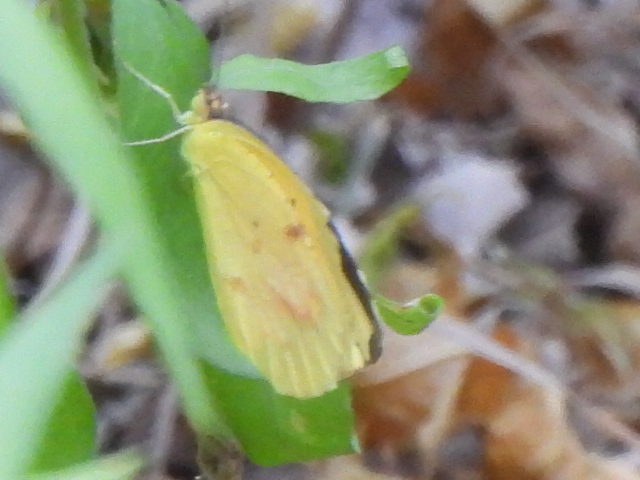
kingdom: Animalia
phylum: Arthropoda
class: Insecta
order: Lepidoptera
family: Pieridae
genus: Abaeis
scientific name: Abaeis nicippe
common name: Sleepy orange
